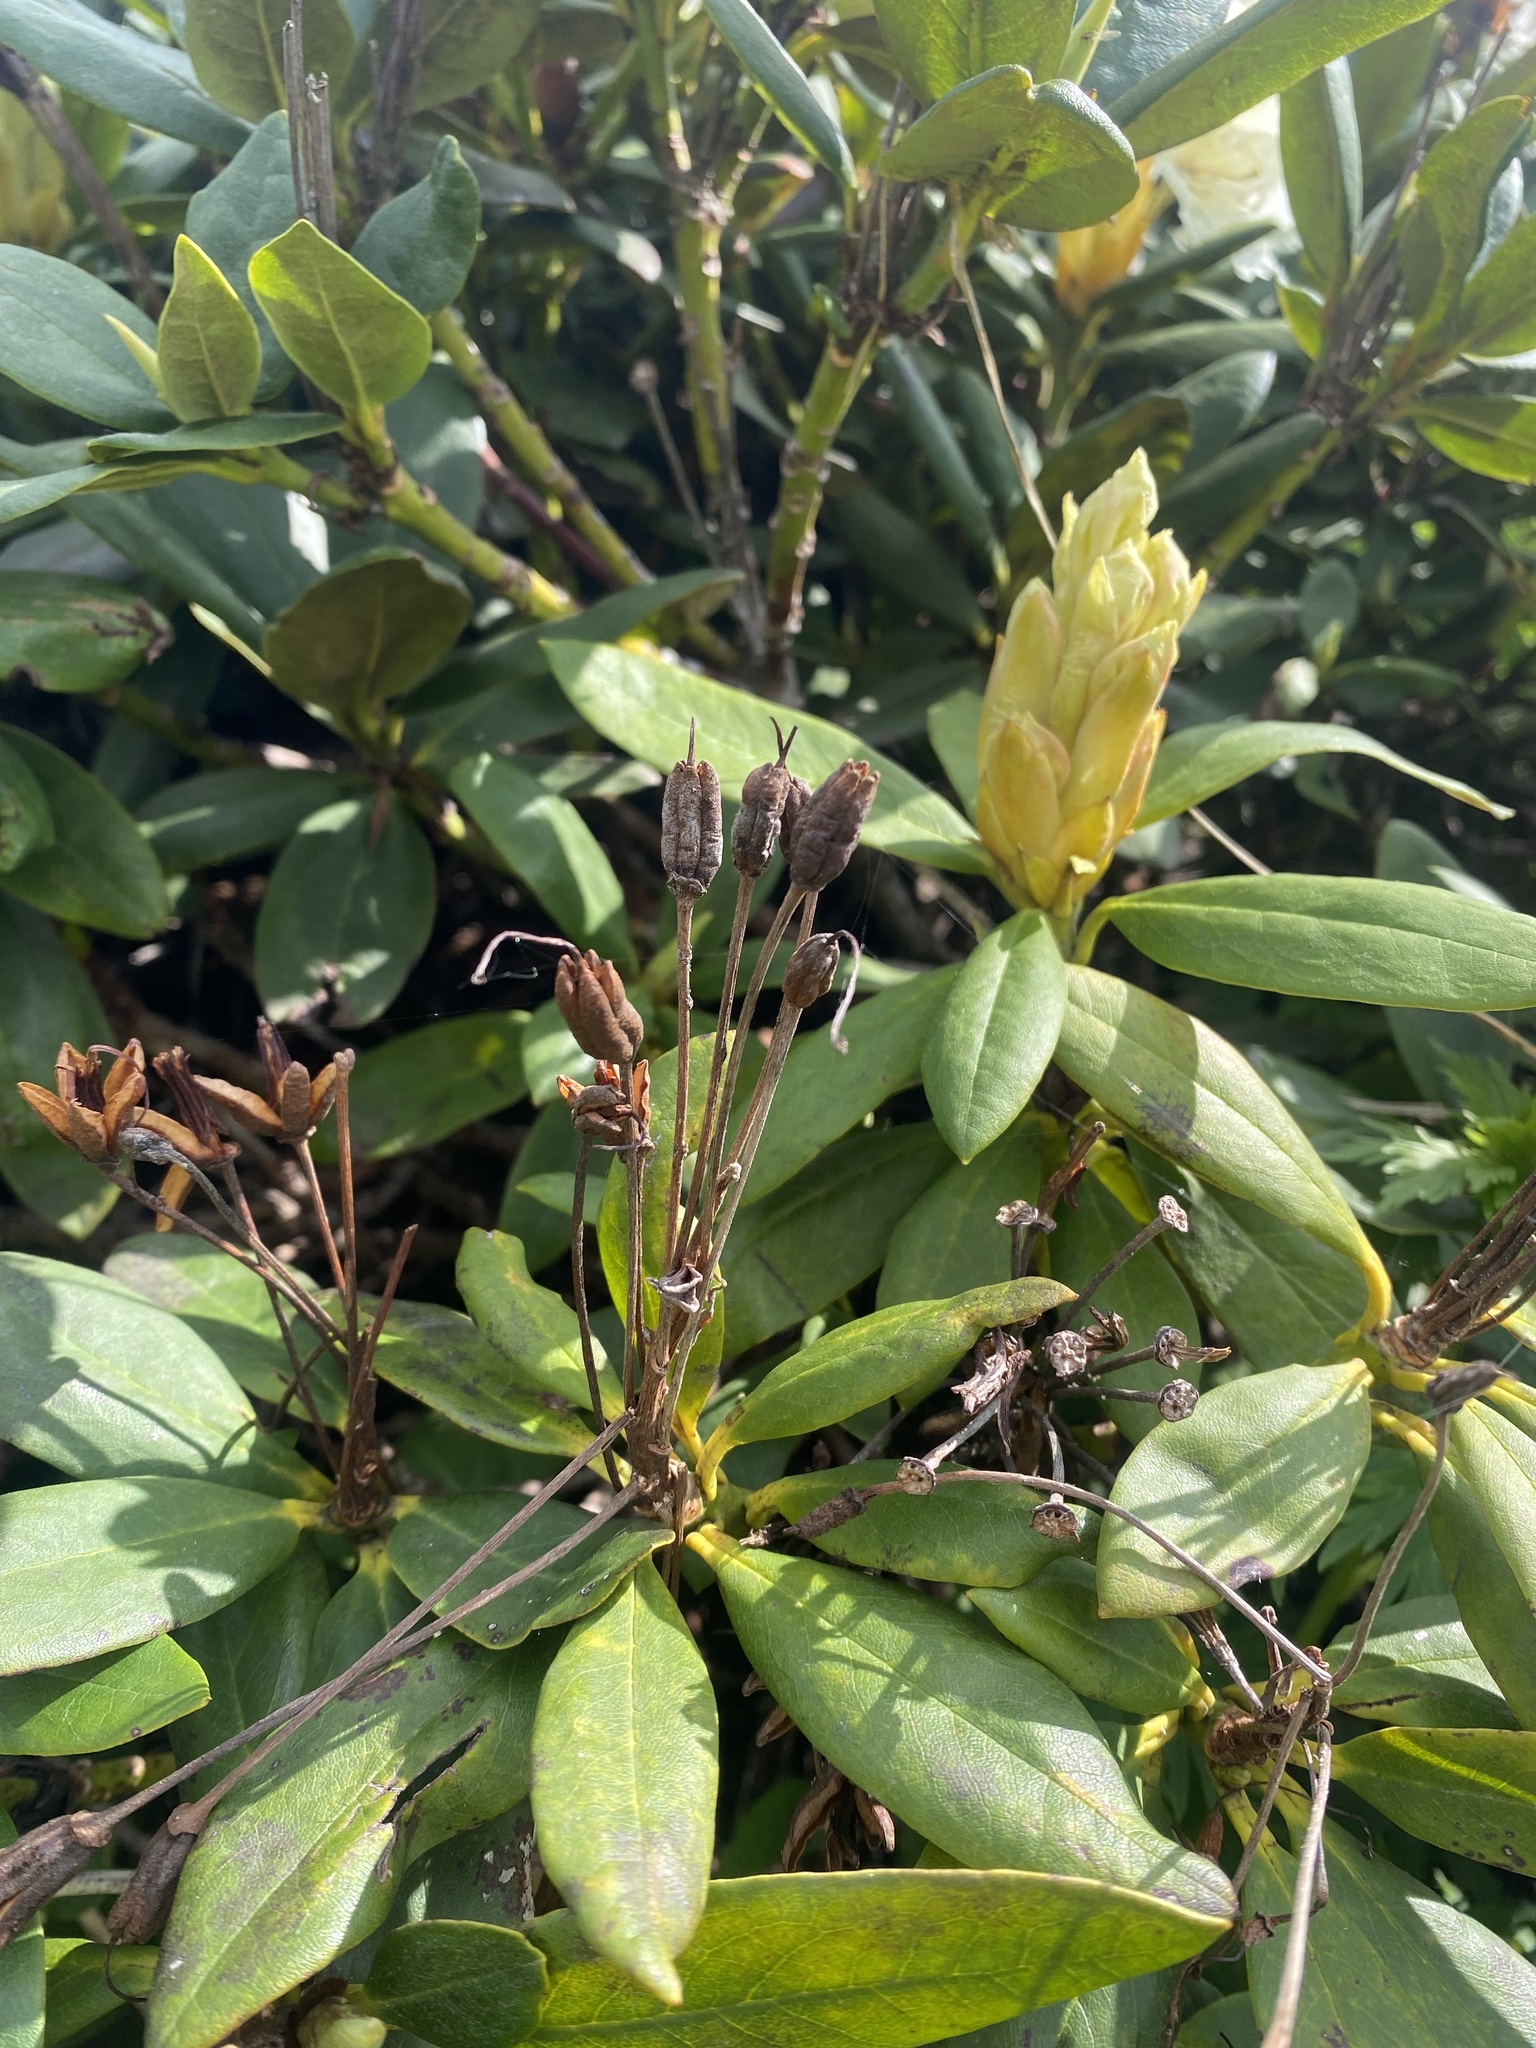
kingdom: Plantae
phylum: Tracheophyta
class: Magnoliopsida
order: Ericales
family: Ericaceae
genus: Rhododendron
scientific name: Rhododendron caucasicum
